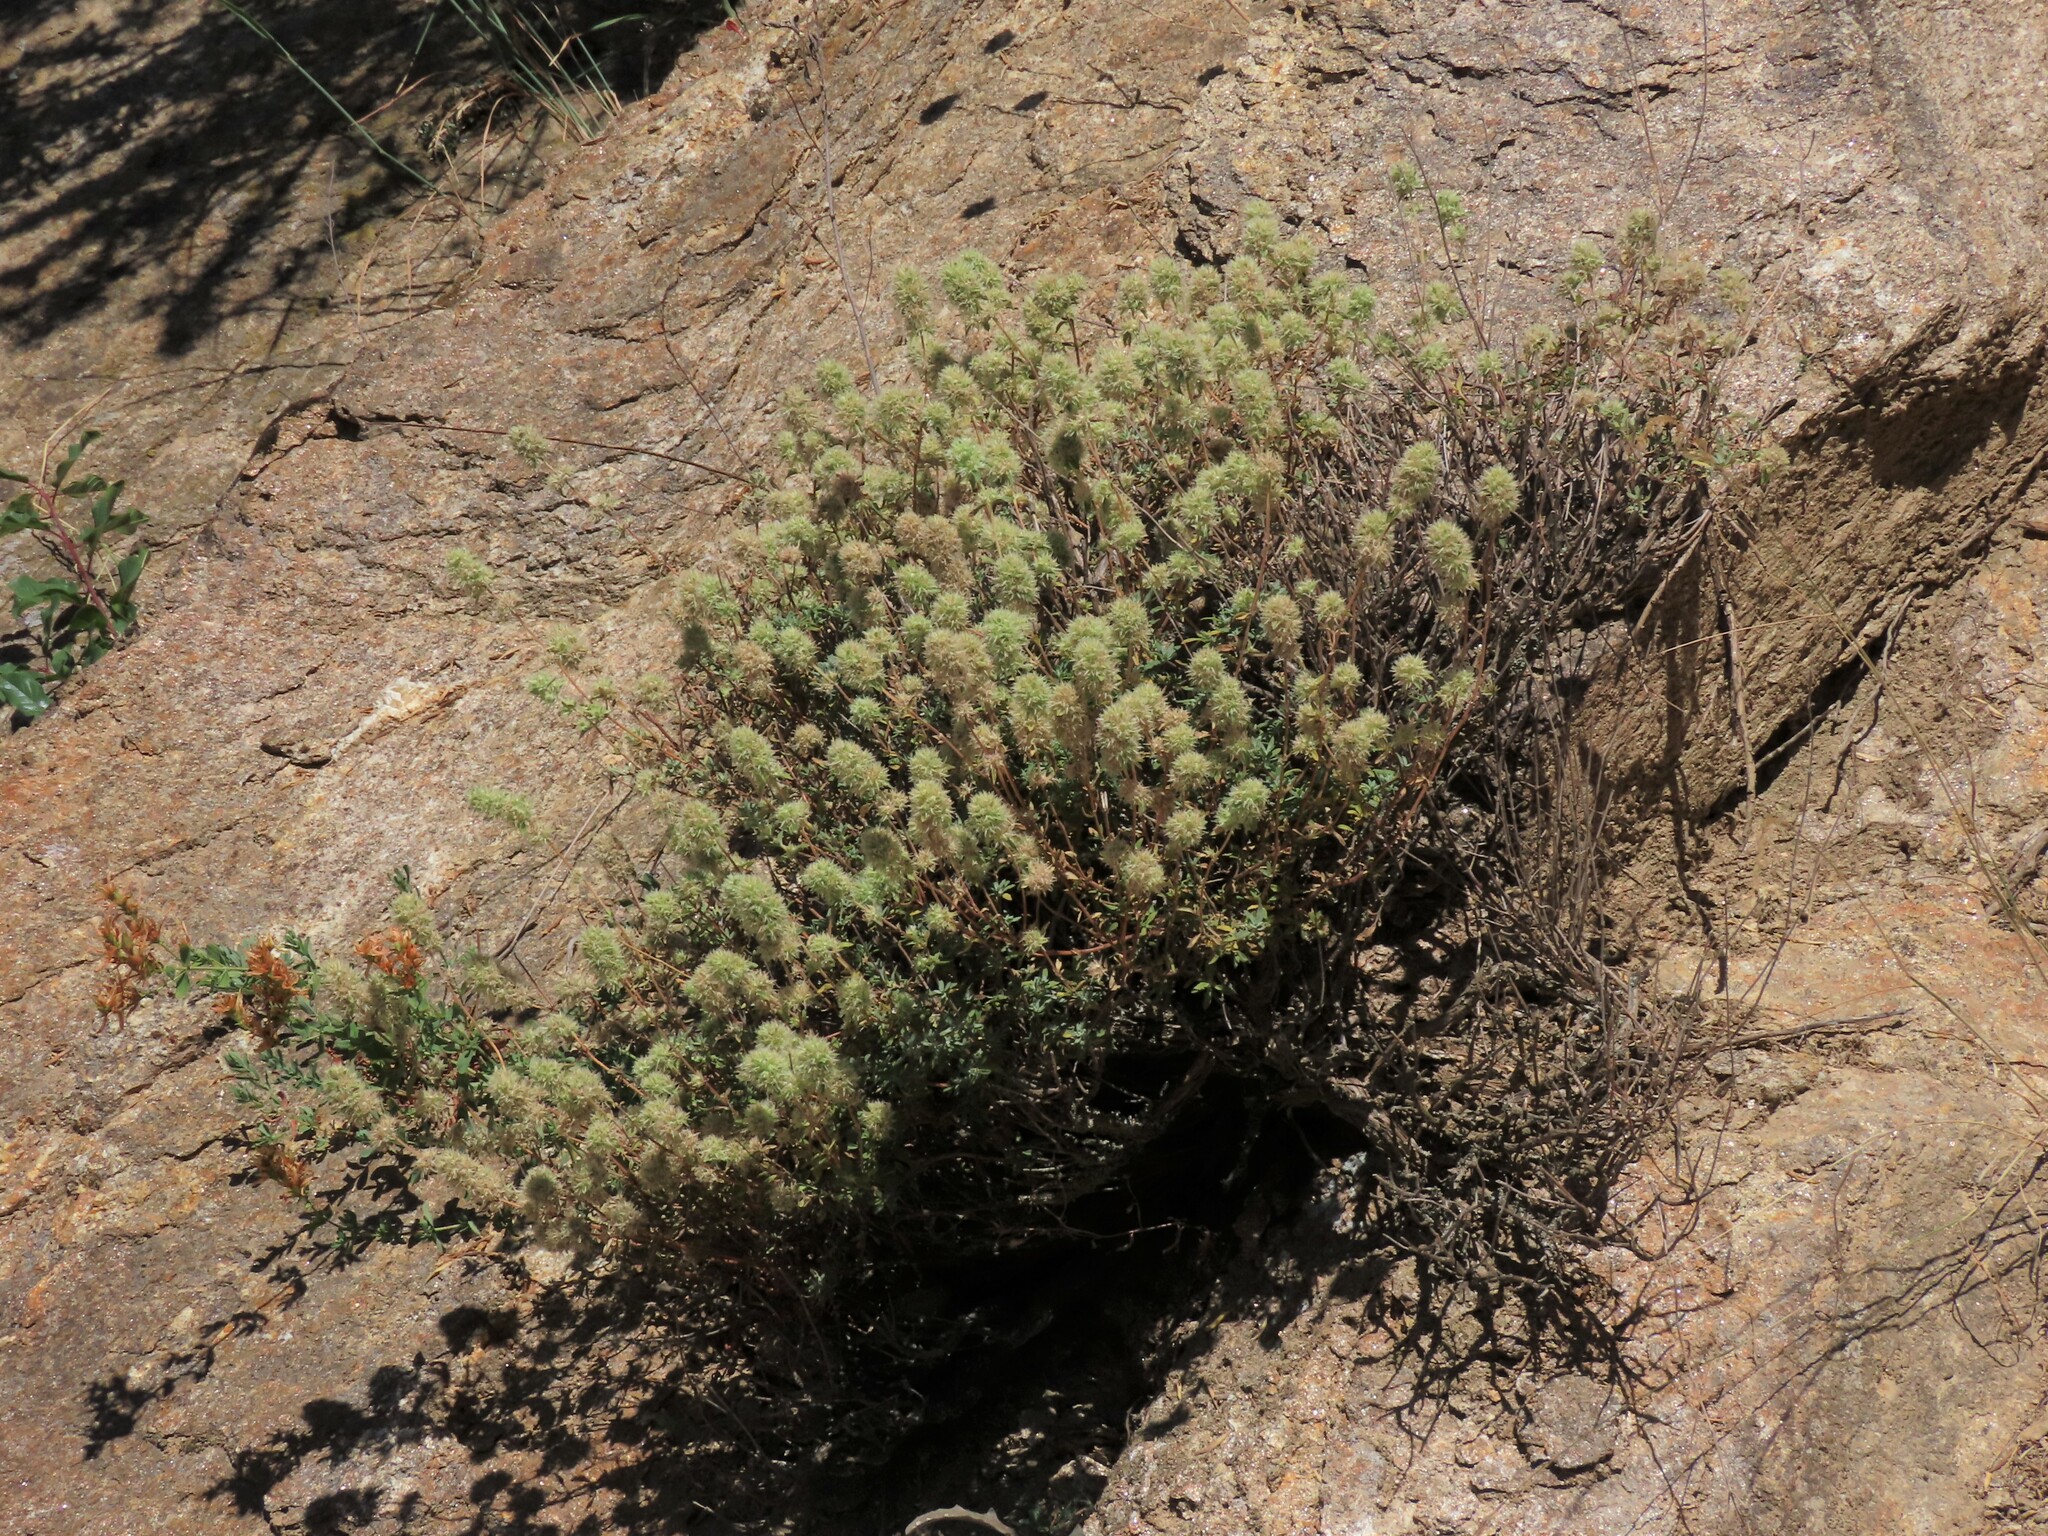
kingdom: Plantae
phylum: Tracheophyta
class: Magnoliopsida
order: Lamiales
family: Lamiaceae
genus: Thymus
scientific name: Thymus mastichina
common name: Mastic thyme
